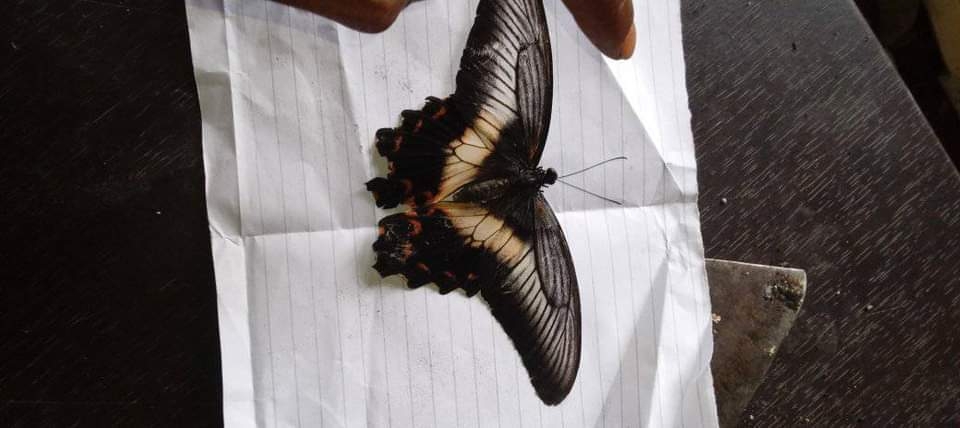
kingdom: Animalia
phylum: Arthropoda
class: Insecta
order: Lepidoptera
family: Papilionidae
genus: Papilio
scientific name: Papilio oenomaus
